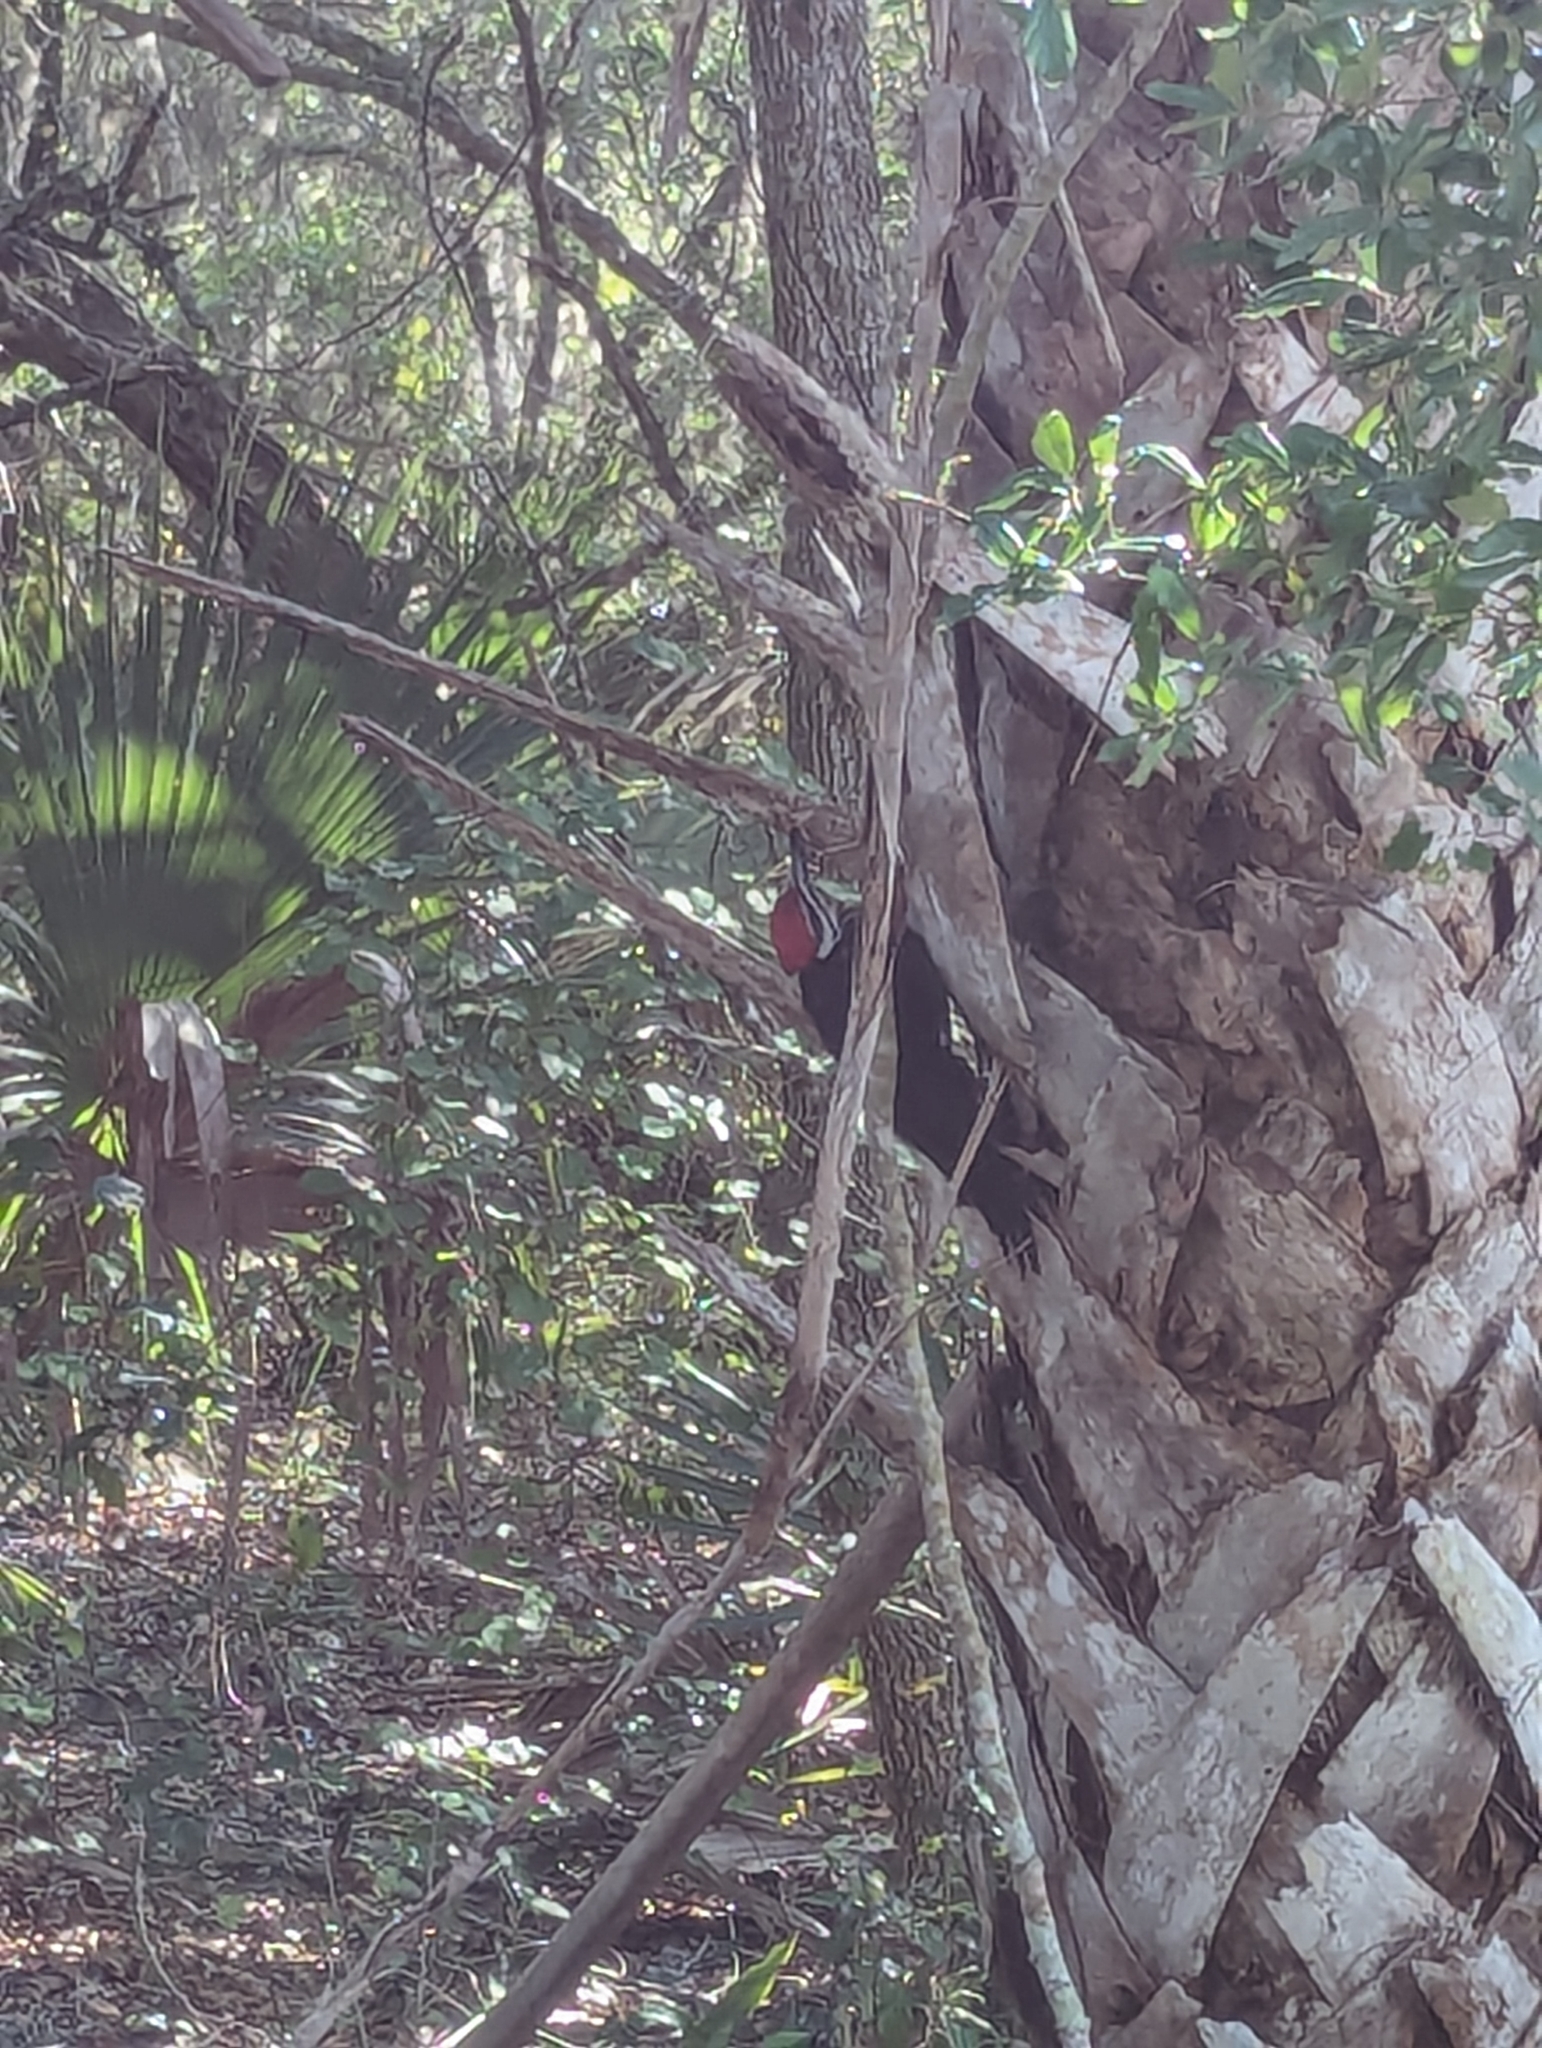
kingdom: Animalia
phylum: Chordata
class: Aves
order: Piciformes
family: Picidae
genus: Dryocopus
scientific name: Dryocopus pileatus
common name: Pileated woodpecker
